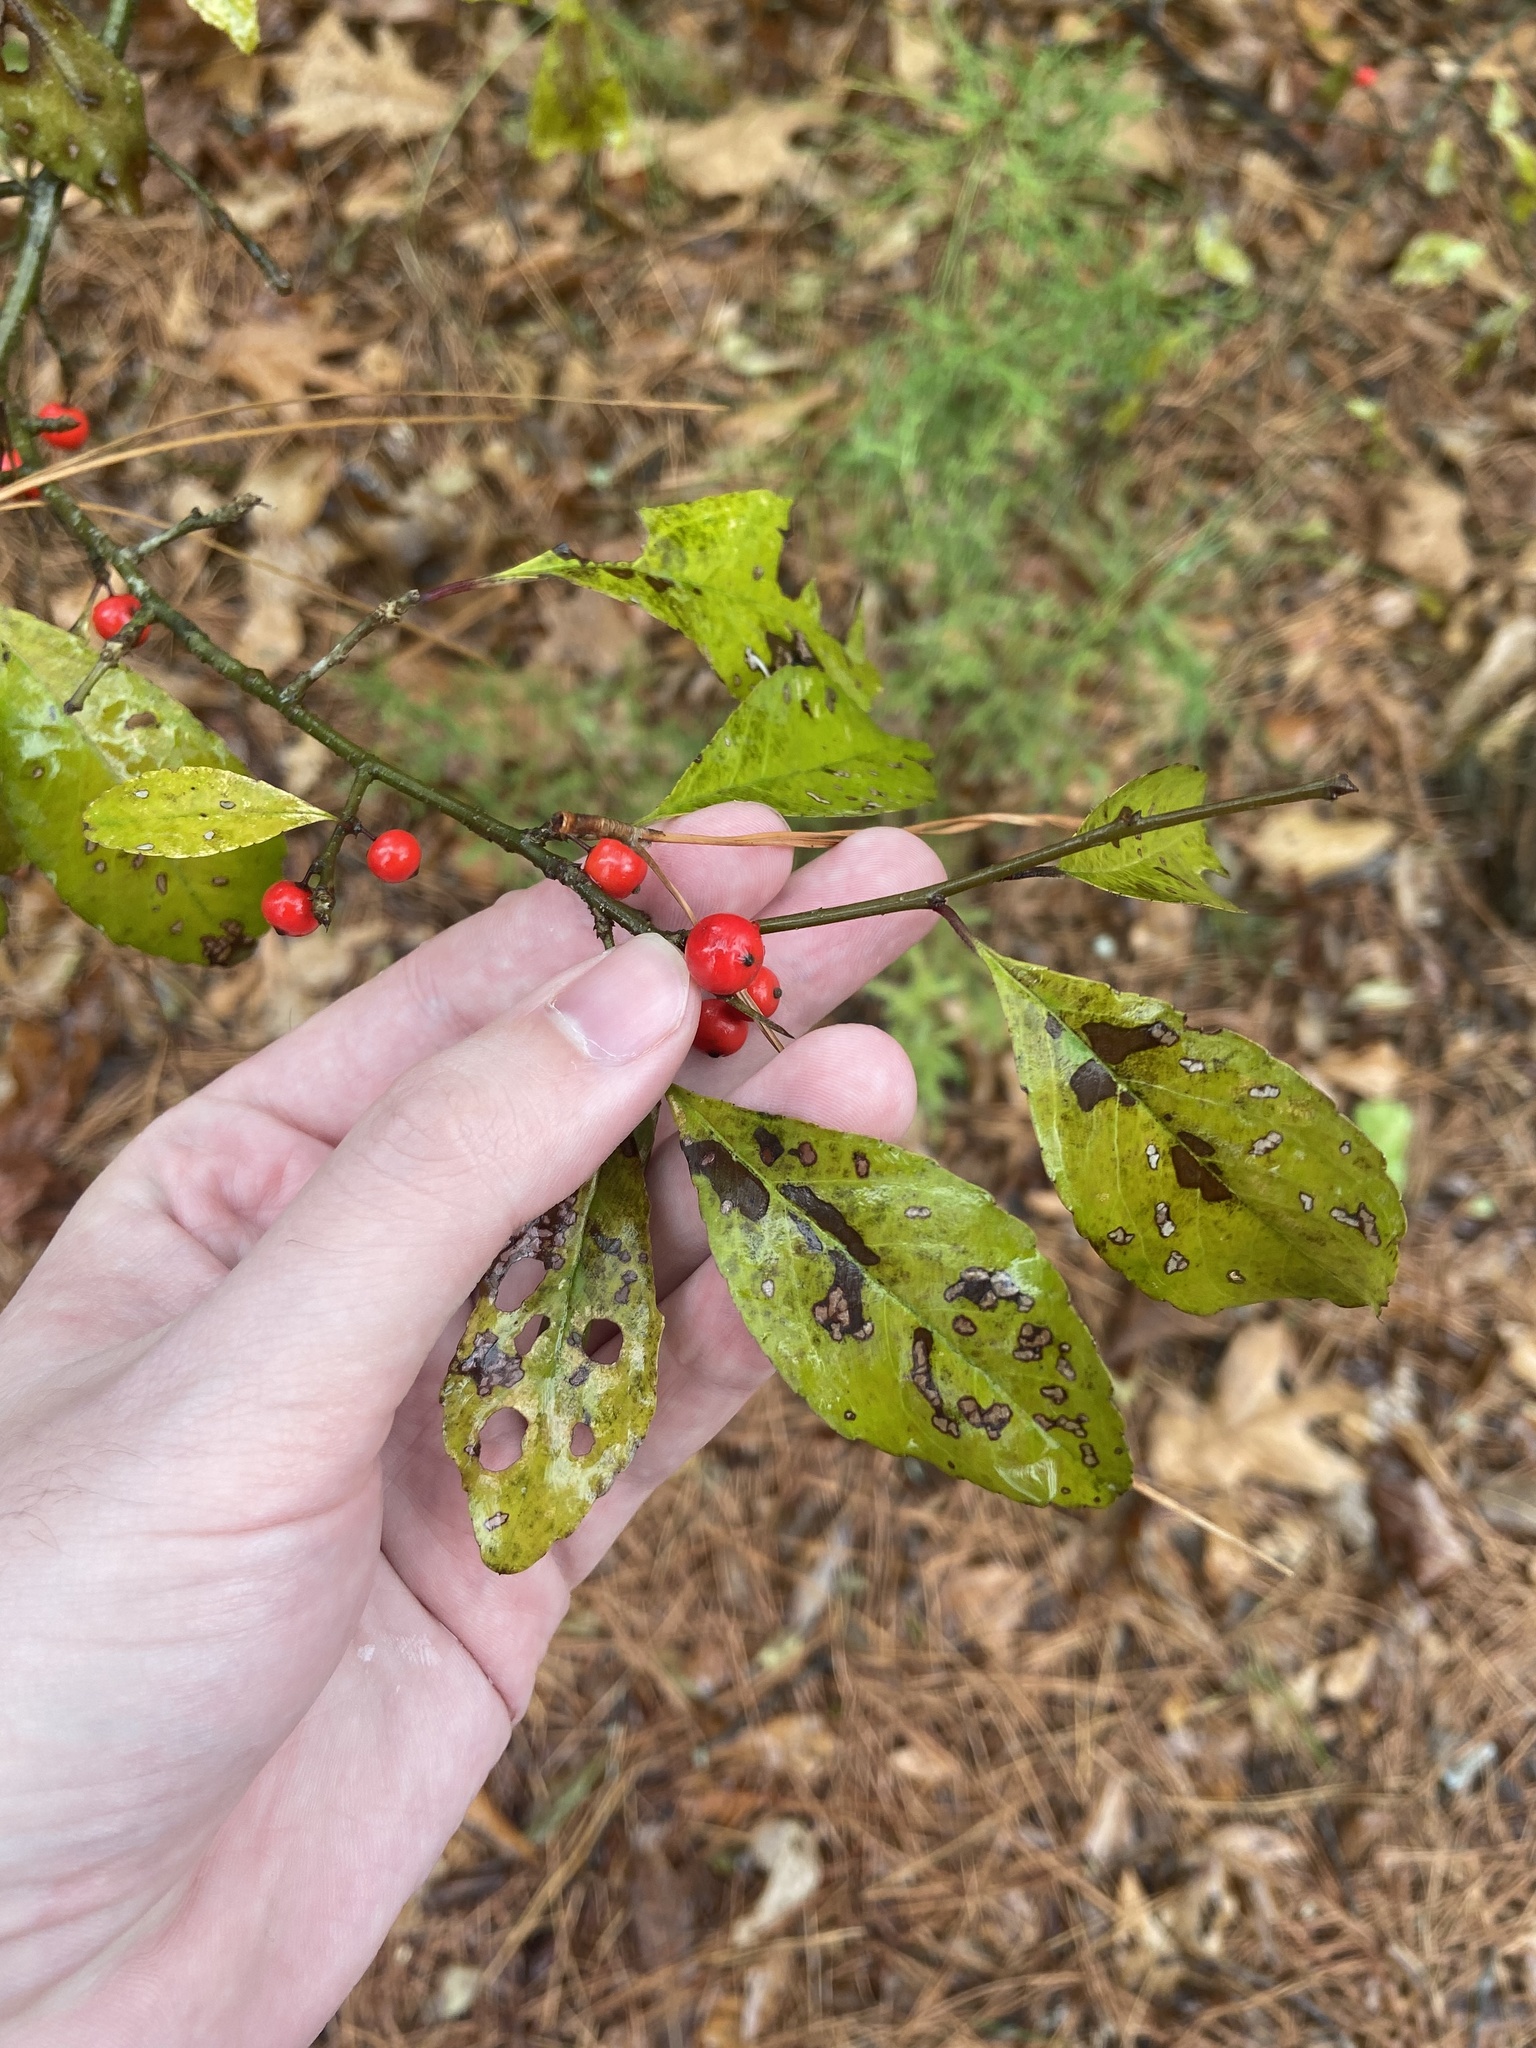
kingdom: Plantae
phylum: Tracheophyta
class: Magnoliopsida
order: Aquifoliales
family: Aquifoliaceae
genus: Ilex
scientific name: Ilex decidua
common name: Possum-haw
